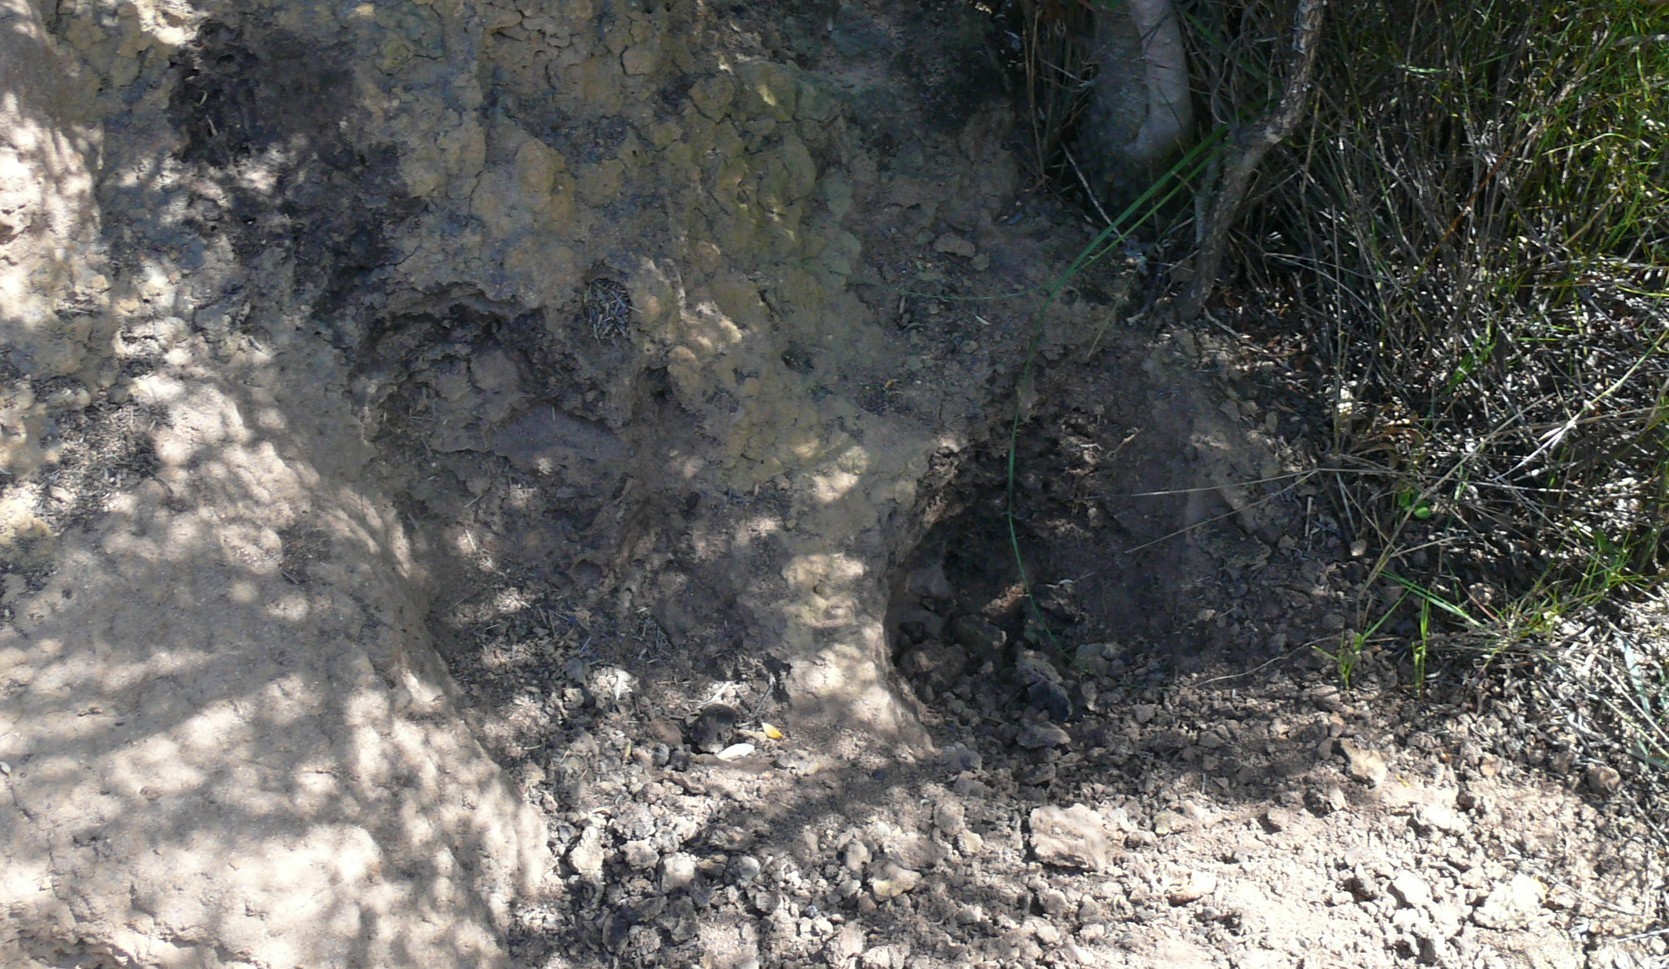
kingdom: Animalia
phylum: Chordata
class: Mammalia
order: Tubulidentata
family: Orycteropodidae
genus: Orycteropus
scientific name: Orycteropus afer
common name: Aardvark
